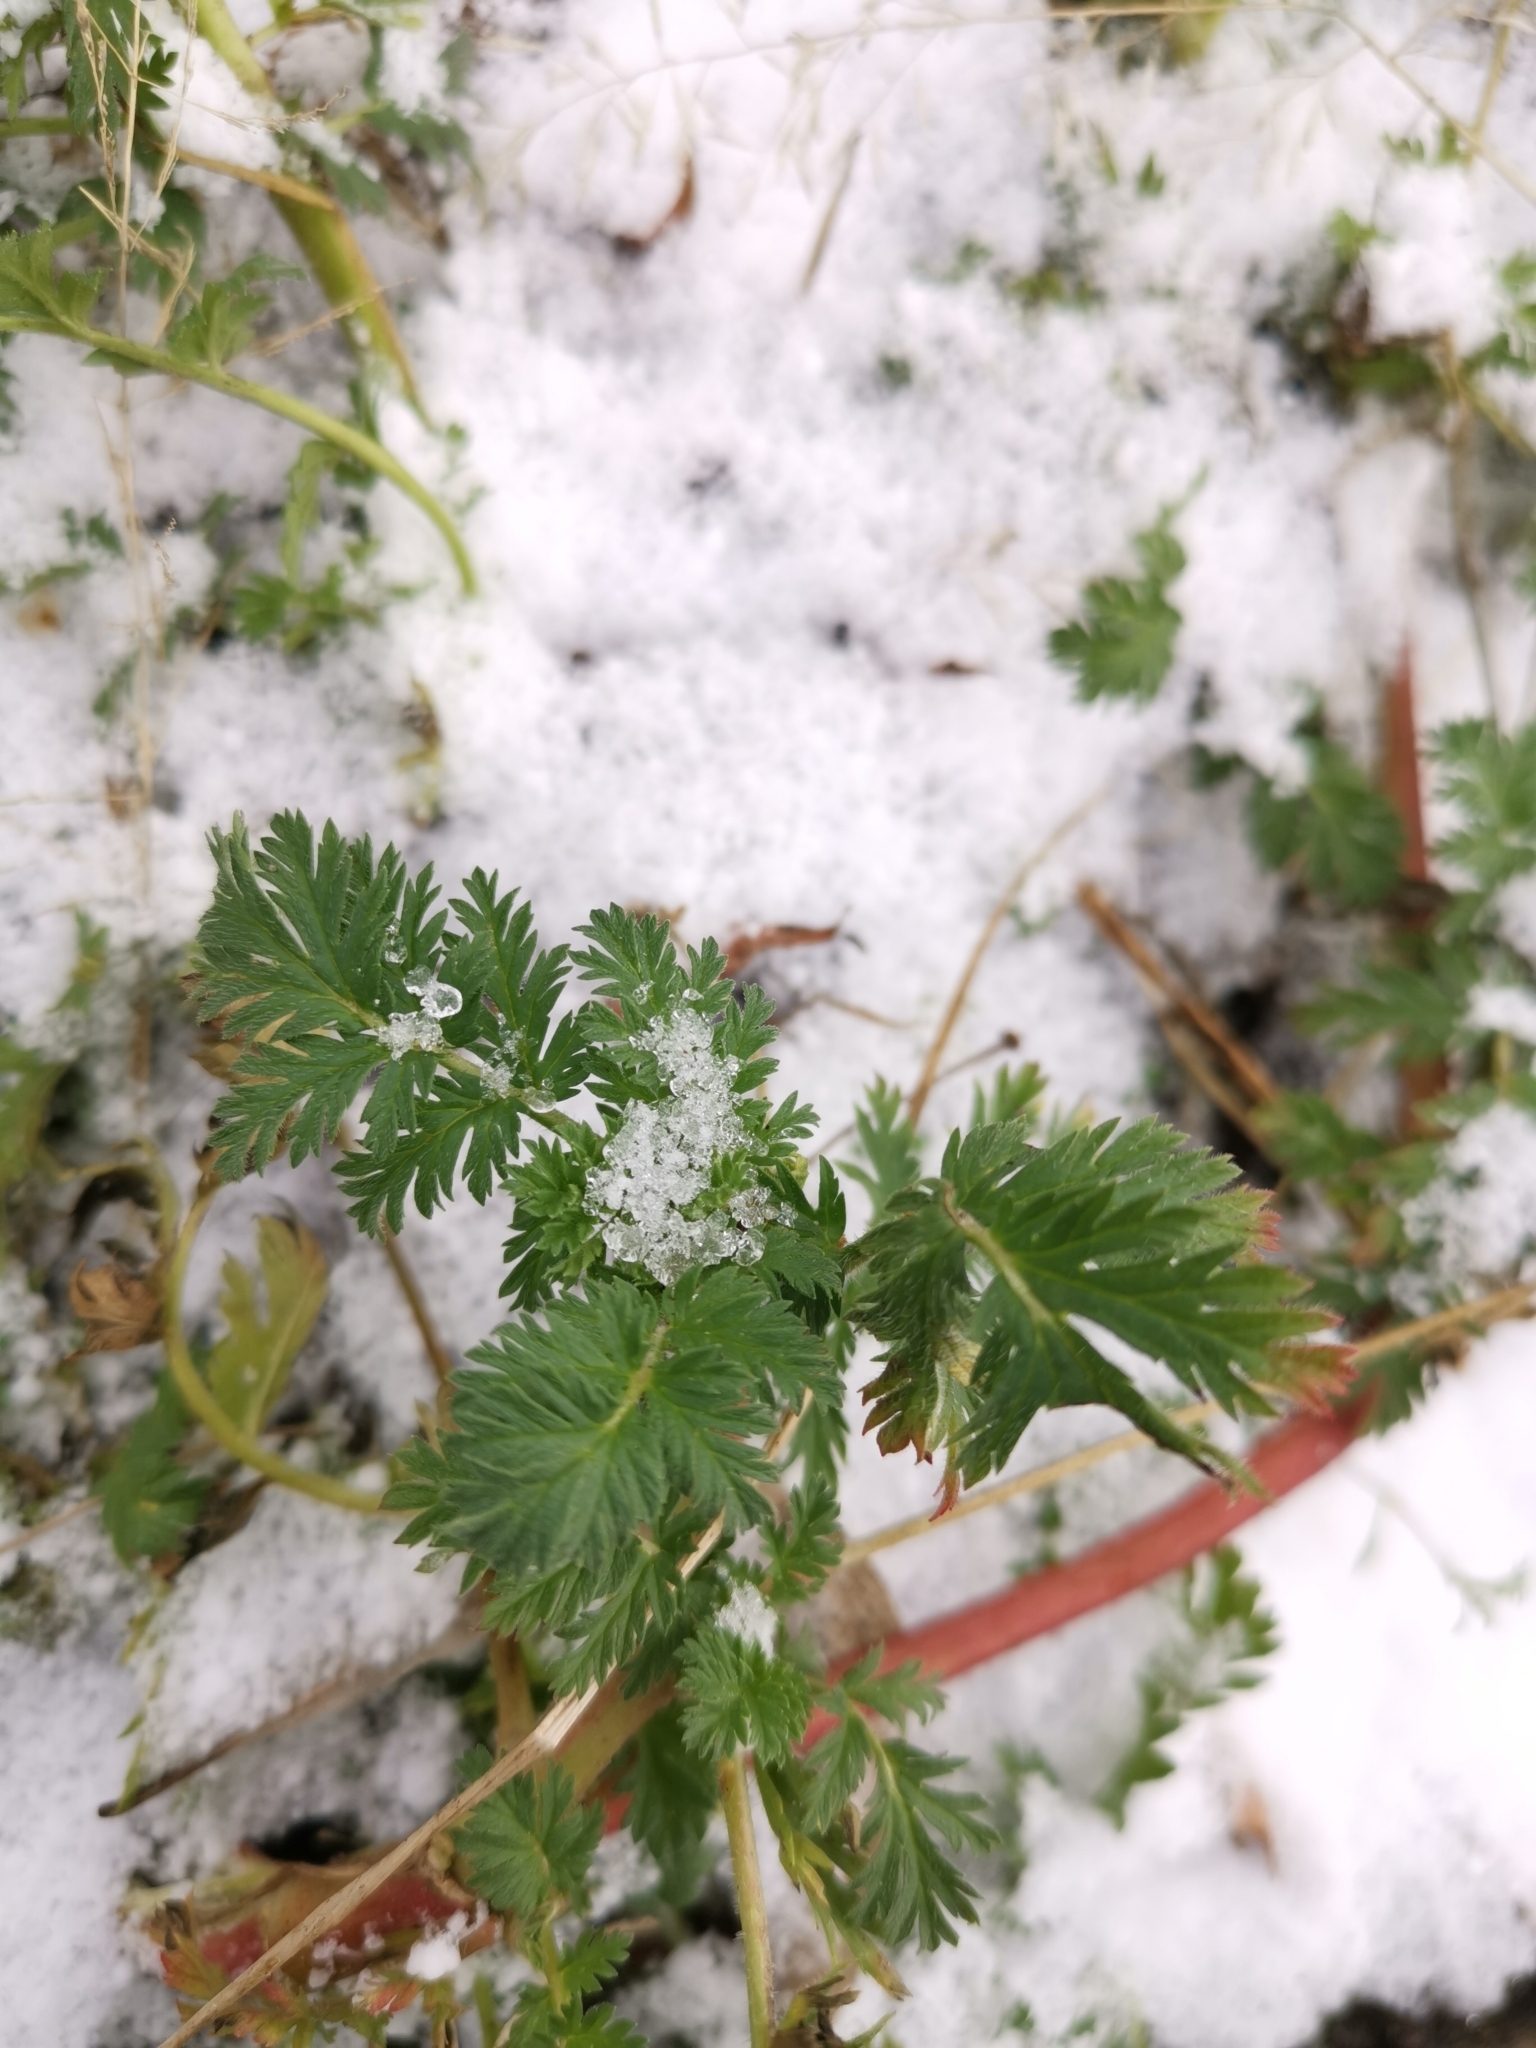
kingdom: Plantae
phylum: Tracheophyta
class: Magnoliopsida
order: Geraniales
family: Geraniaceae
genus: Erodium
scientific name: Erodium cicutarium
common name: Common stork's-bill
